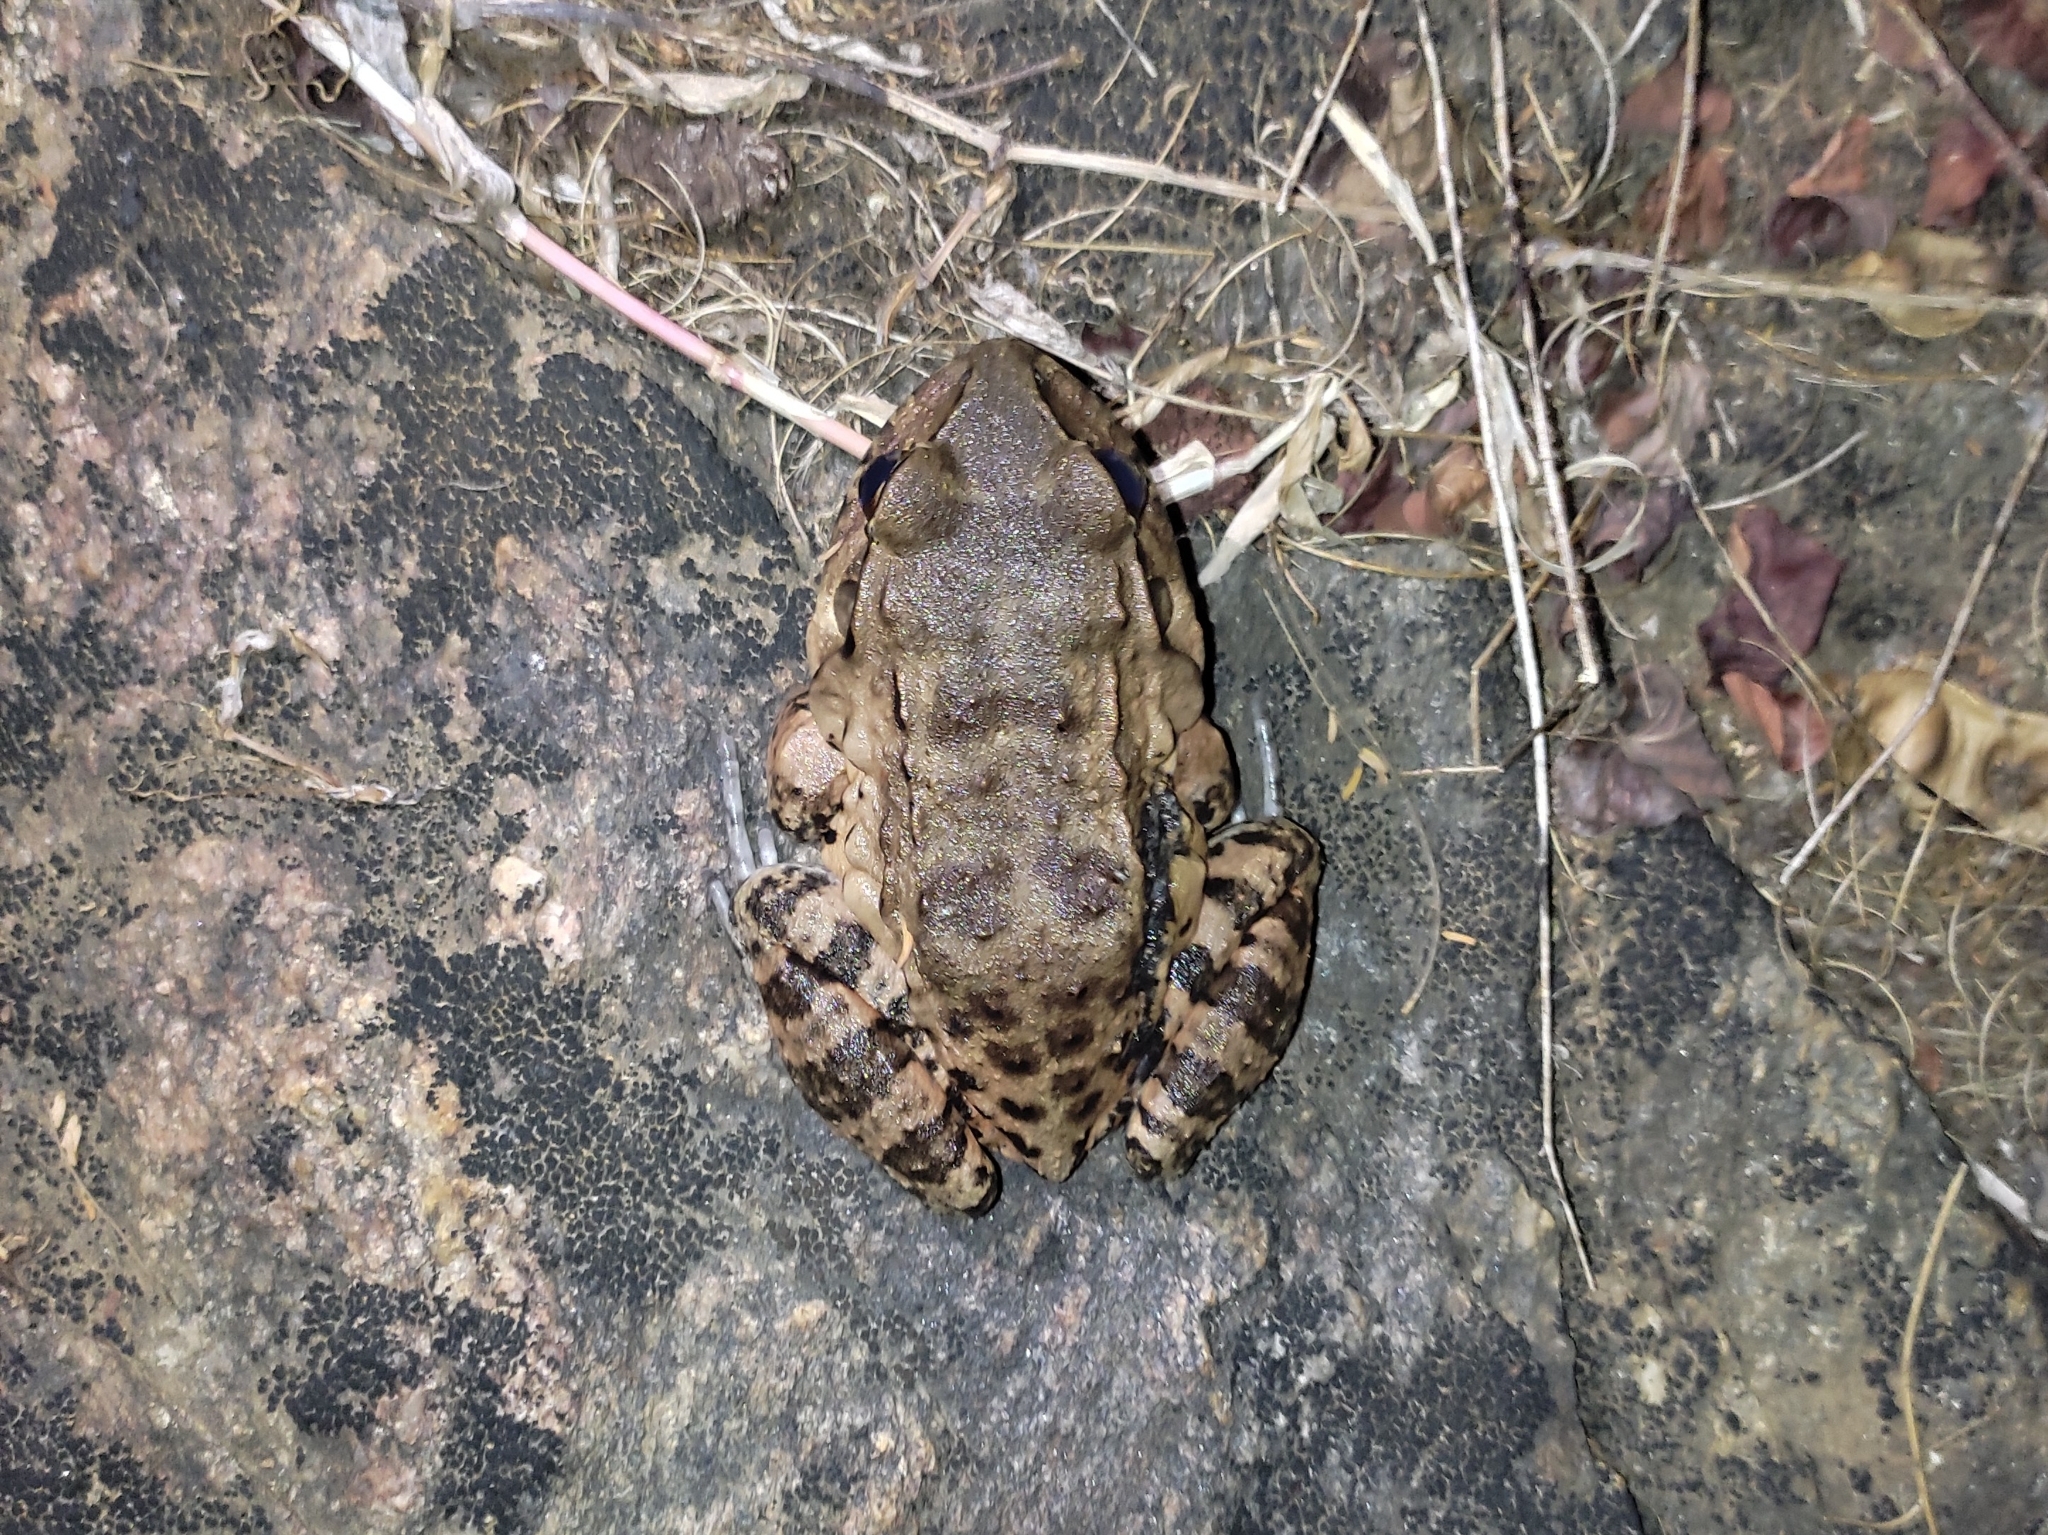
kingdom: Animalia
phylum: Chordata
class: Amphibia
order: Anura
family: Leptodactylidae
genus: Leptodactylus
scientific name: Leptodactylus vastus
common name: Northeastern pepper frog
